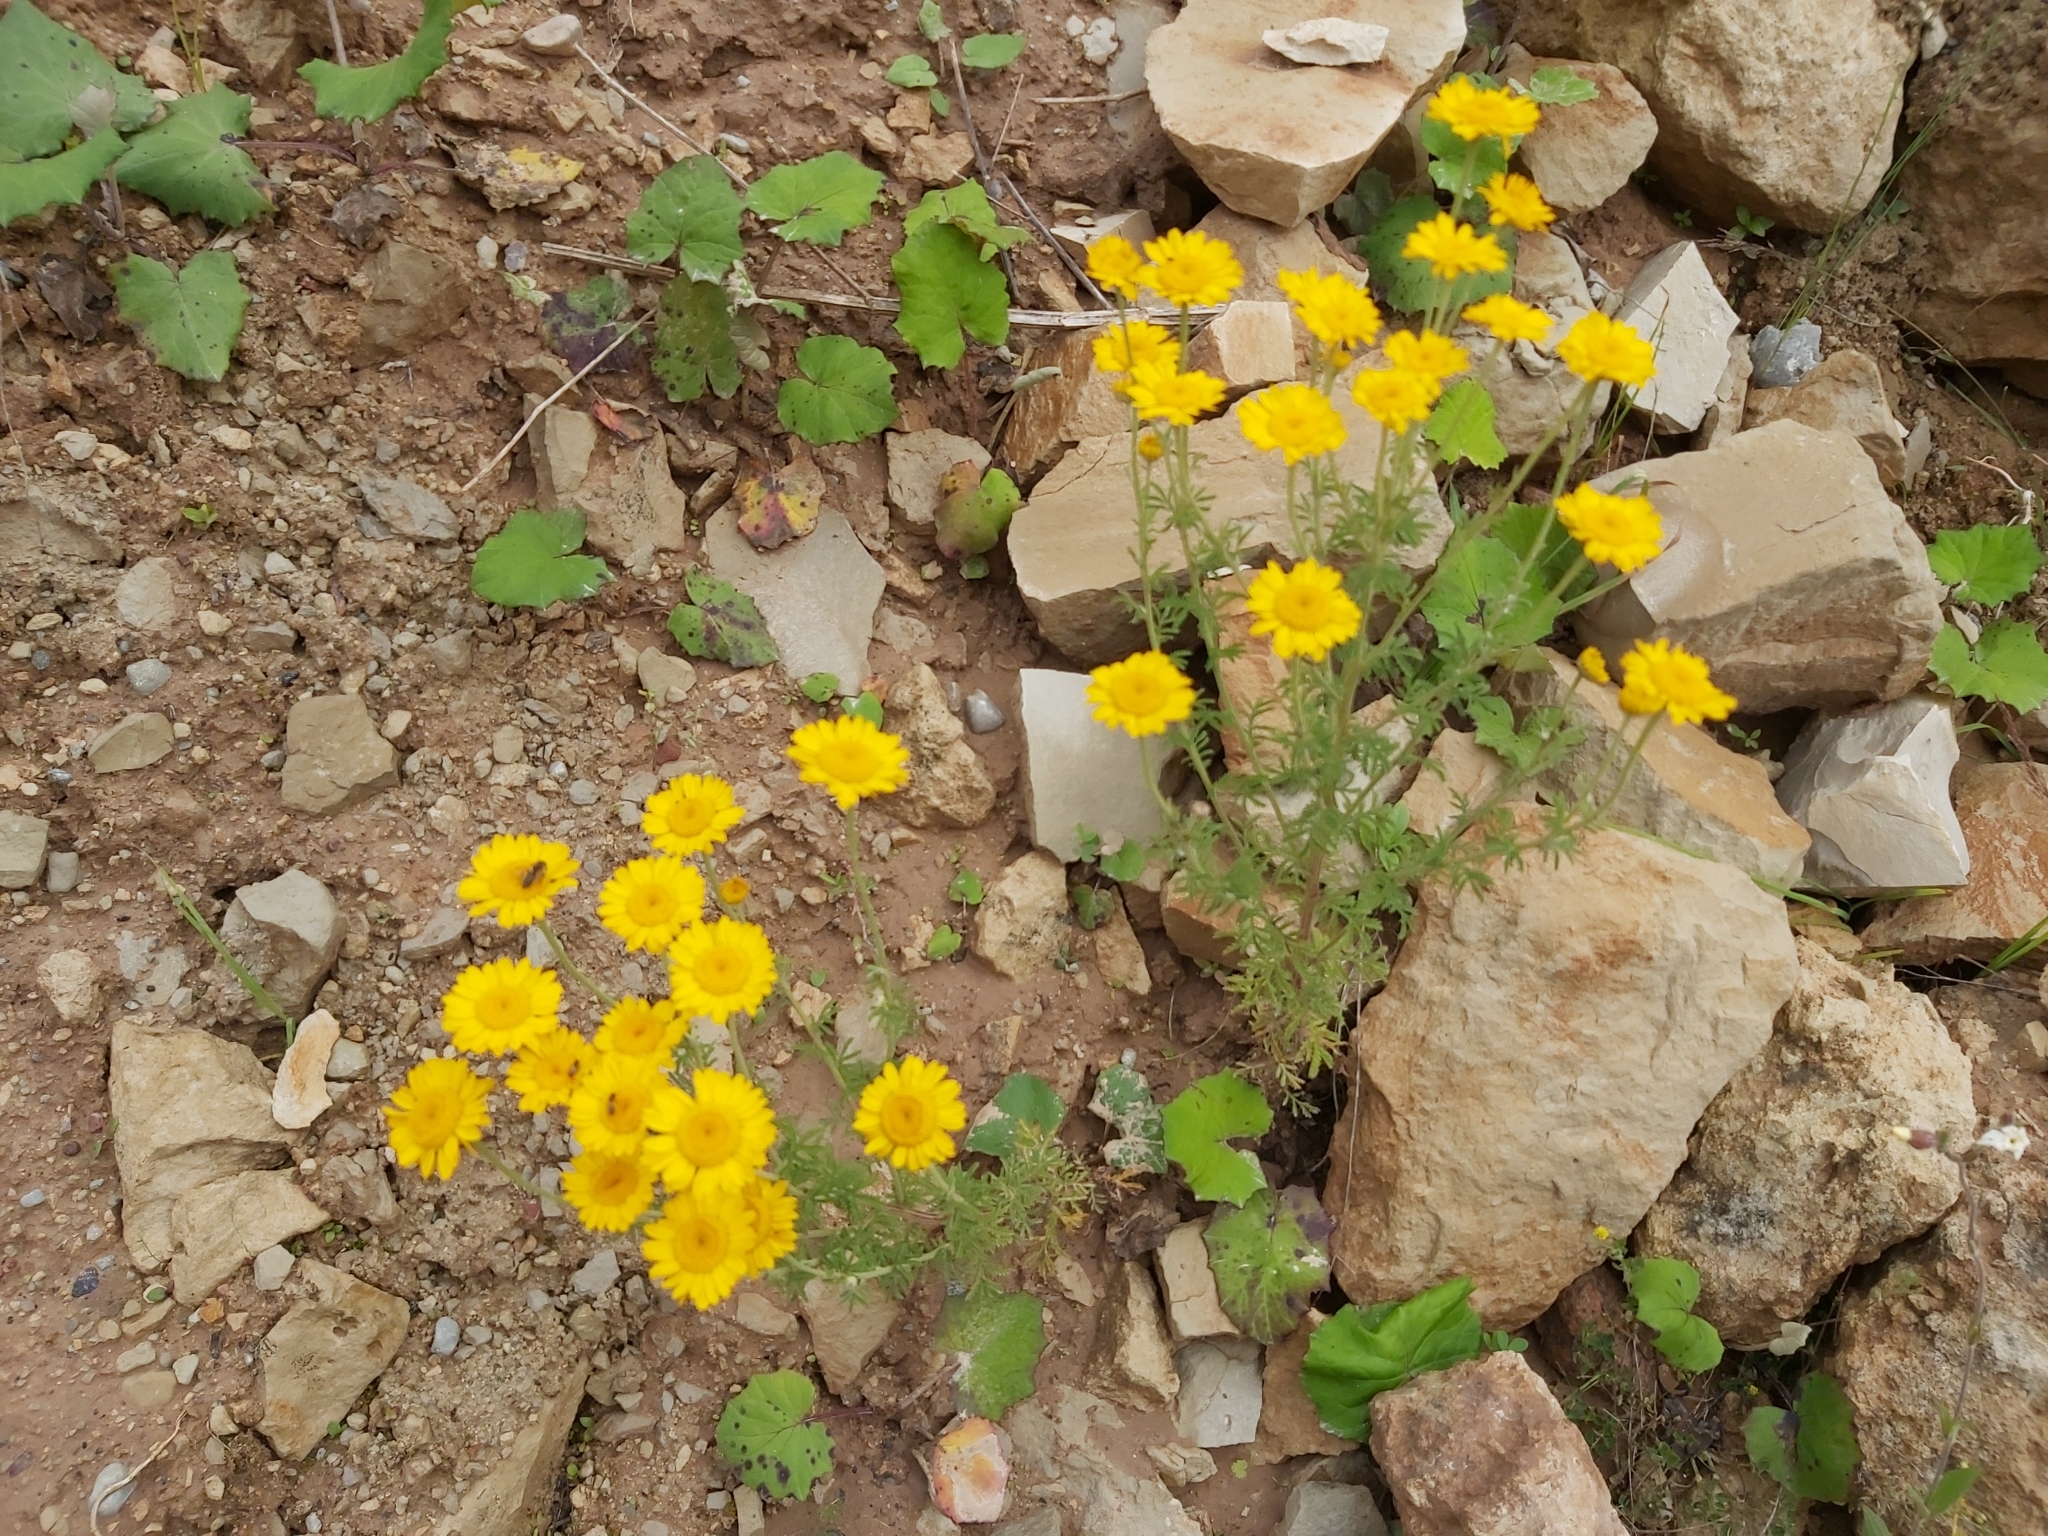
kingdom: Plantae
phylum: Tracheophyta
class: Magnoliopsida
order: Asterales
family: Asteraceae
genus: Cota
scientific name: Cota tinctoria
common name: Golden chamomile
